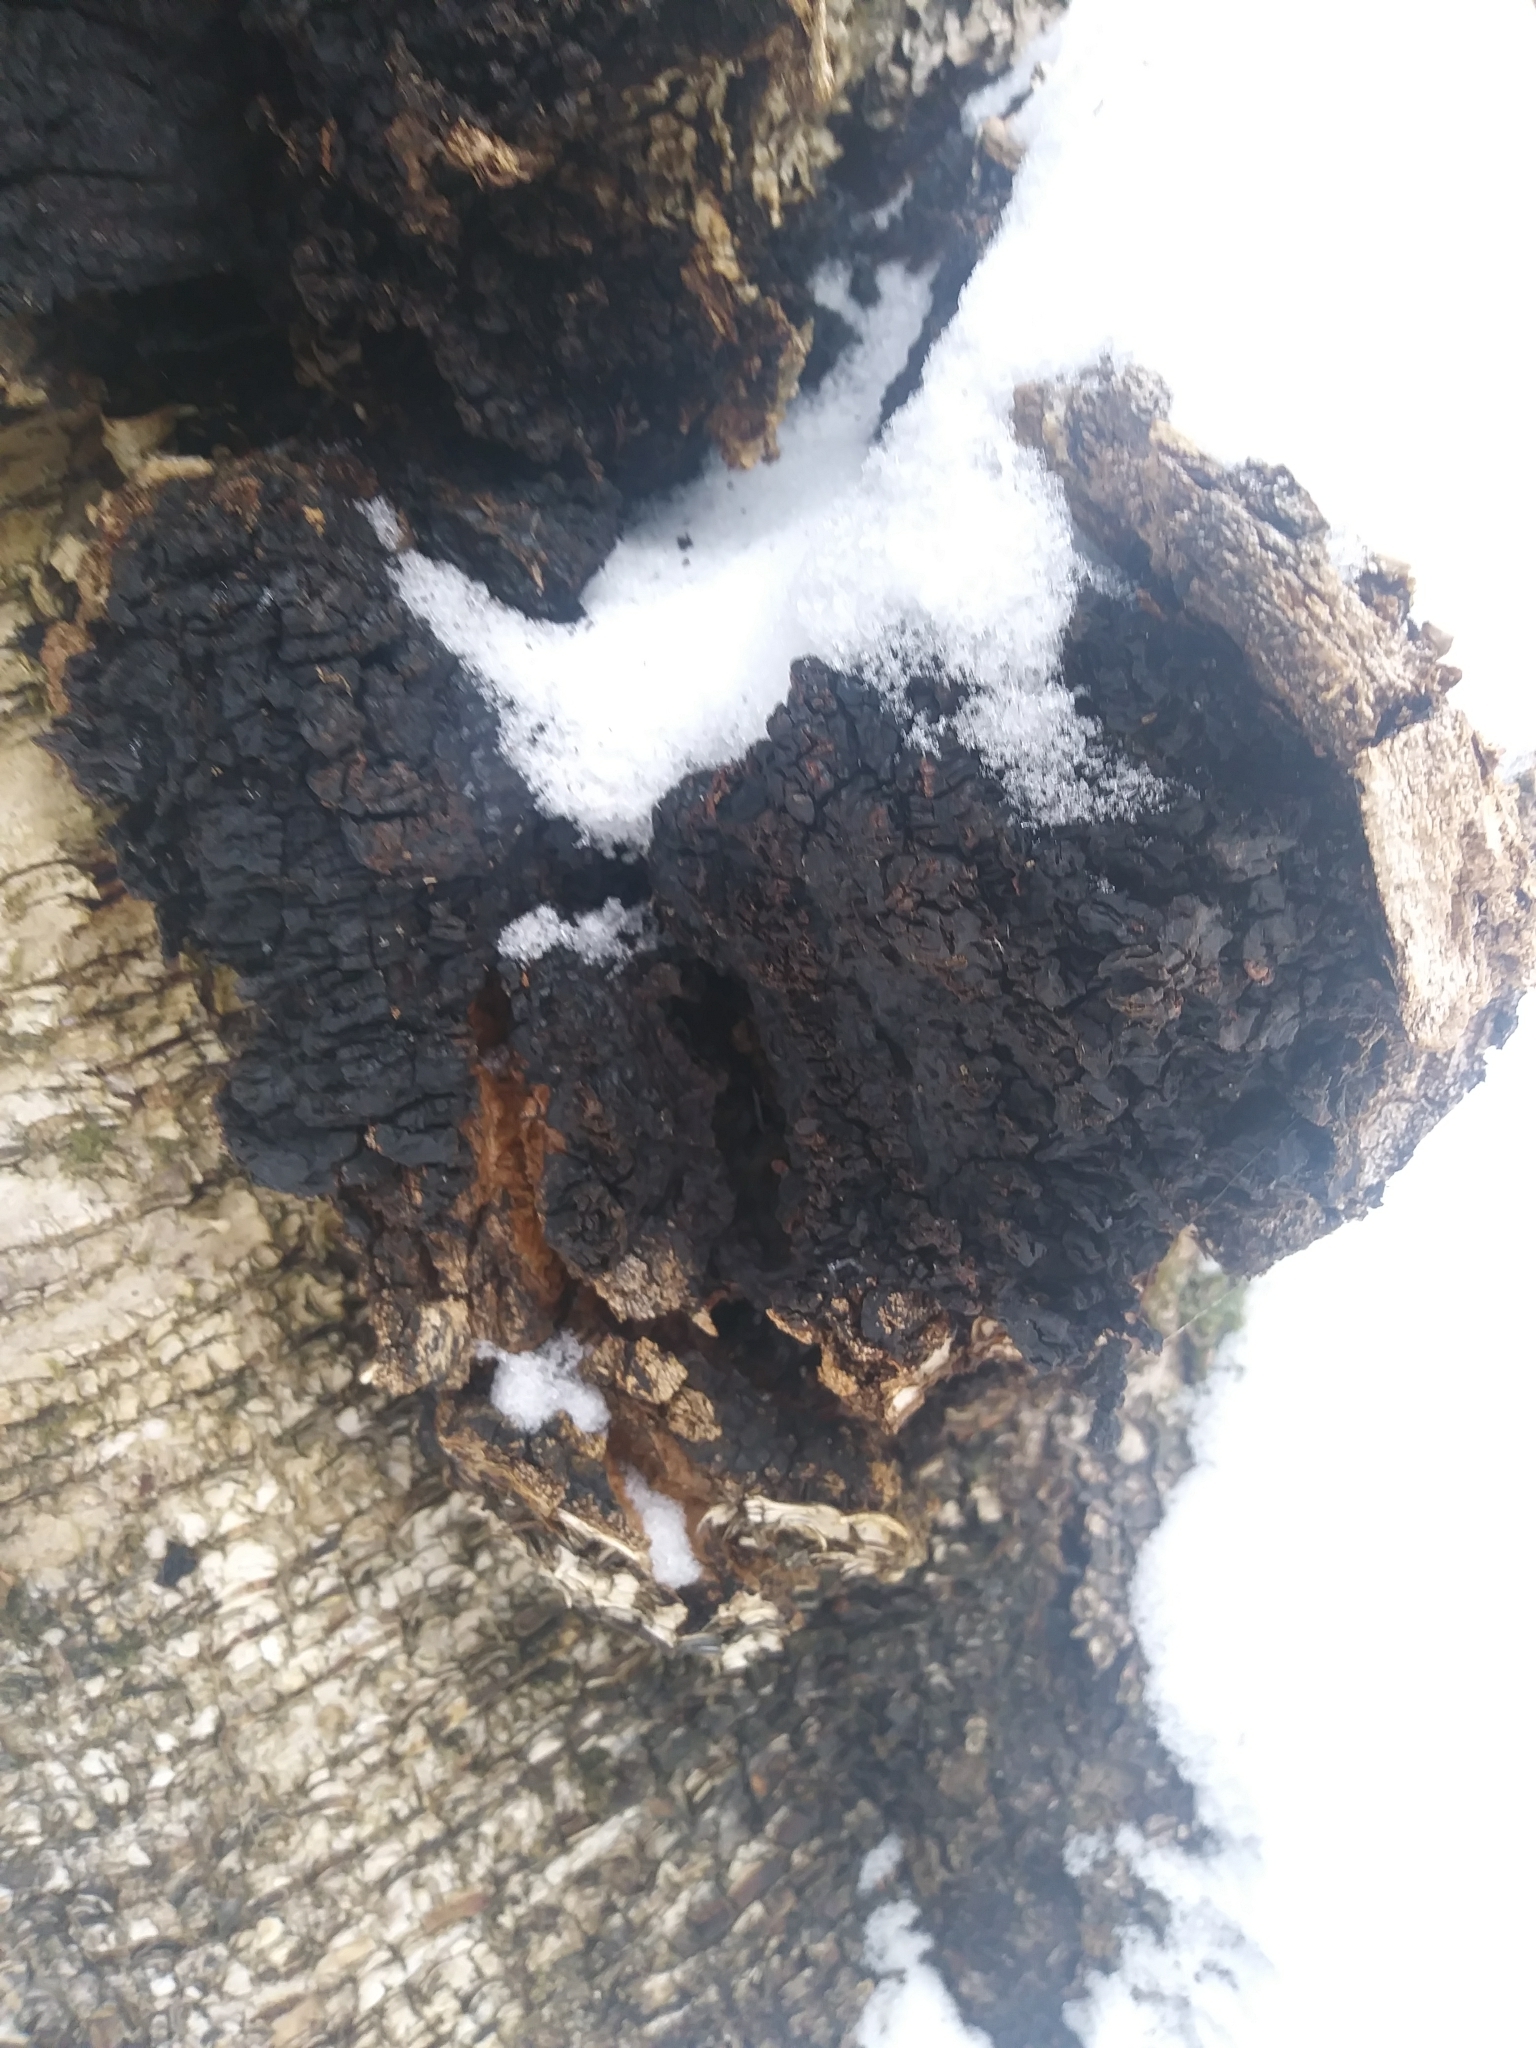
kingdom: Fungi
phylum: Basidiomycota
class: Agaricomycetes
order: Hymenochaetales
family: Hymenochaetaceae
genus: Inonotus
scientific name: Inonotus obliquus
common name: Chaga
